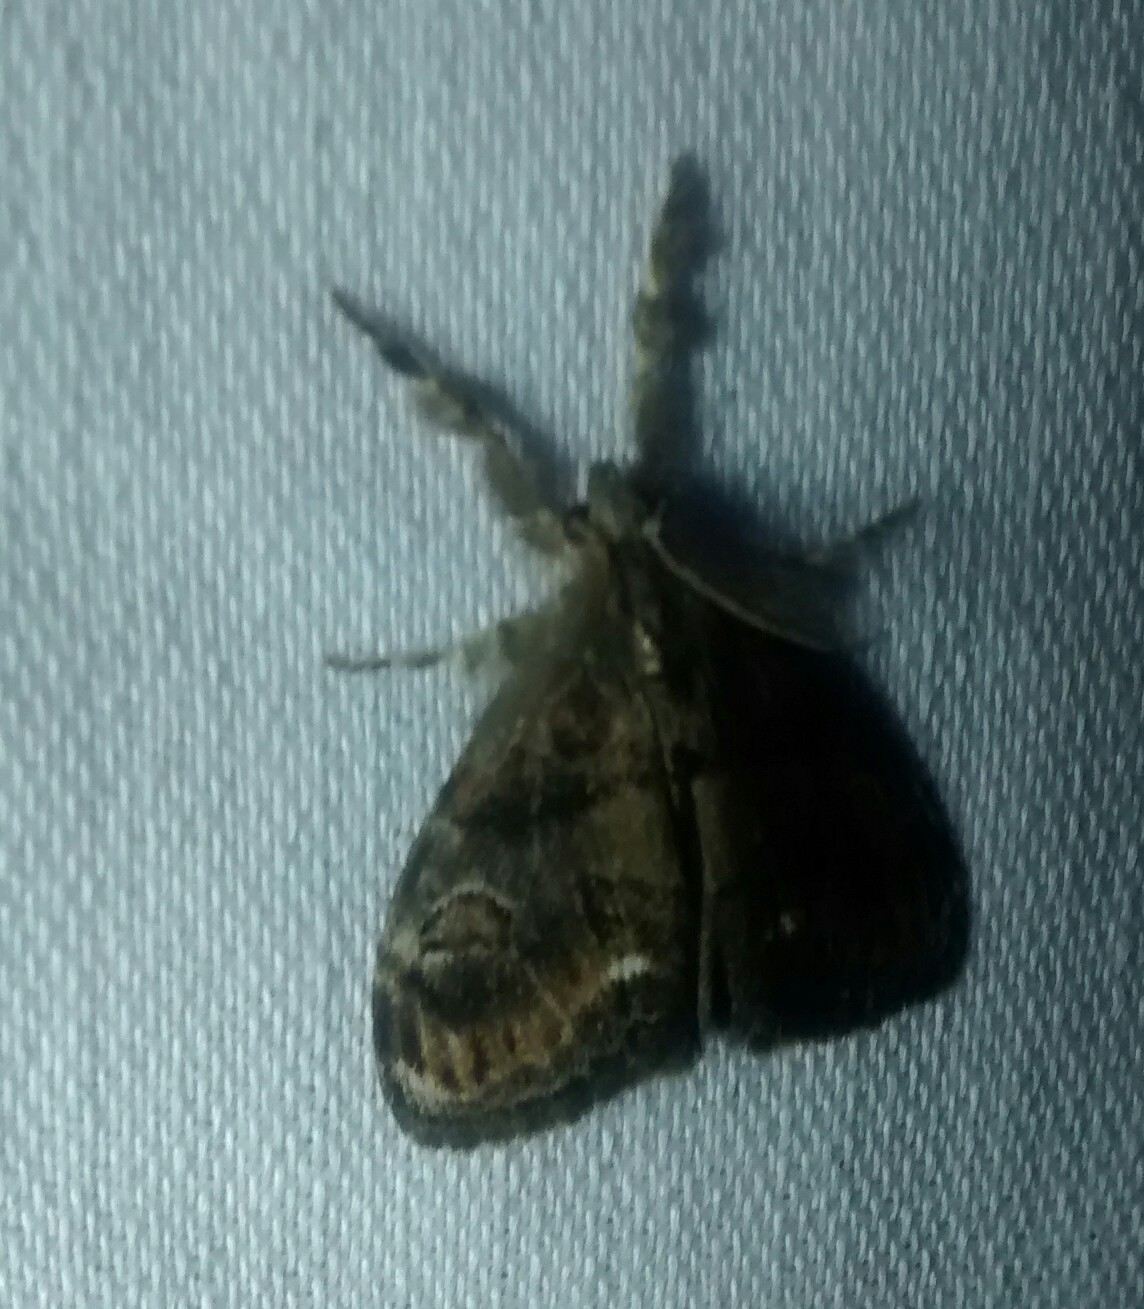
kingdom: Animalia
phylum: Arthropoda
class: Insecta
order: Lepidoptera
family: Erebidae
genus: Orgyia
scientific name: Orgyia definita
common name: Definite tussock moth
